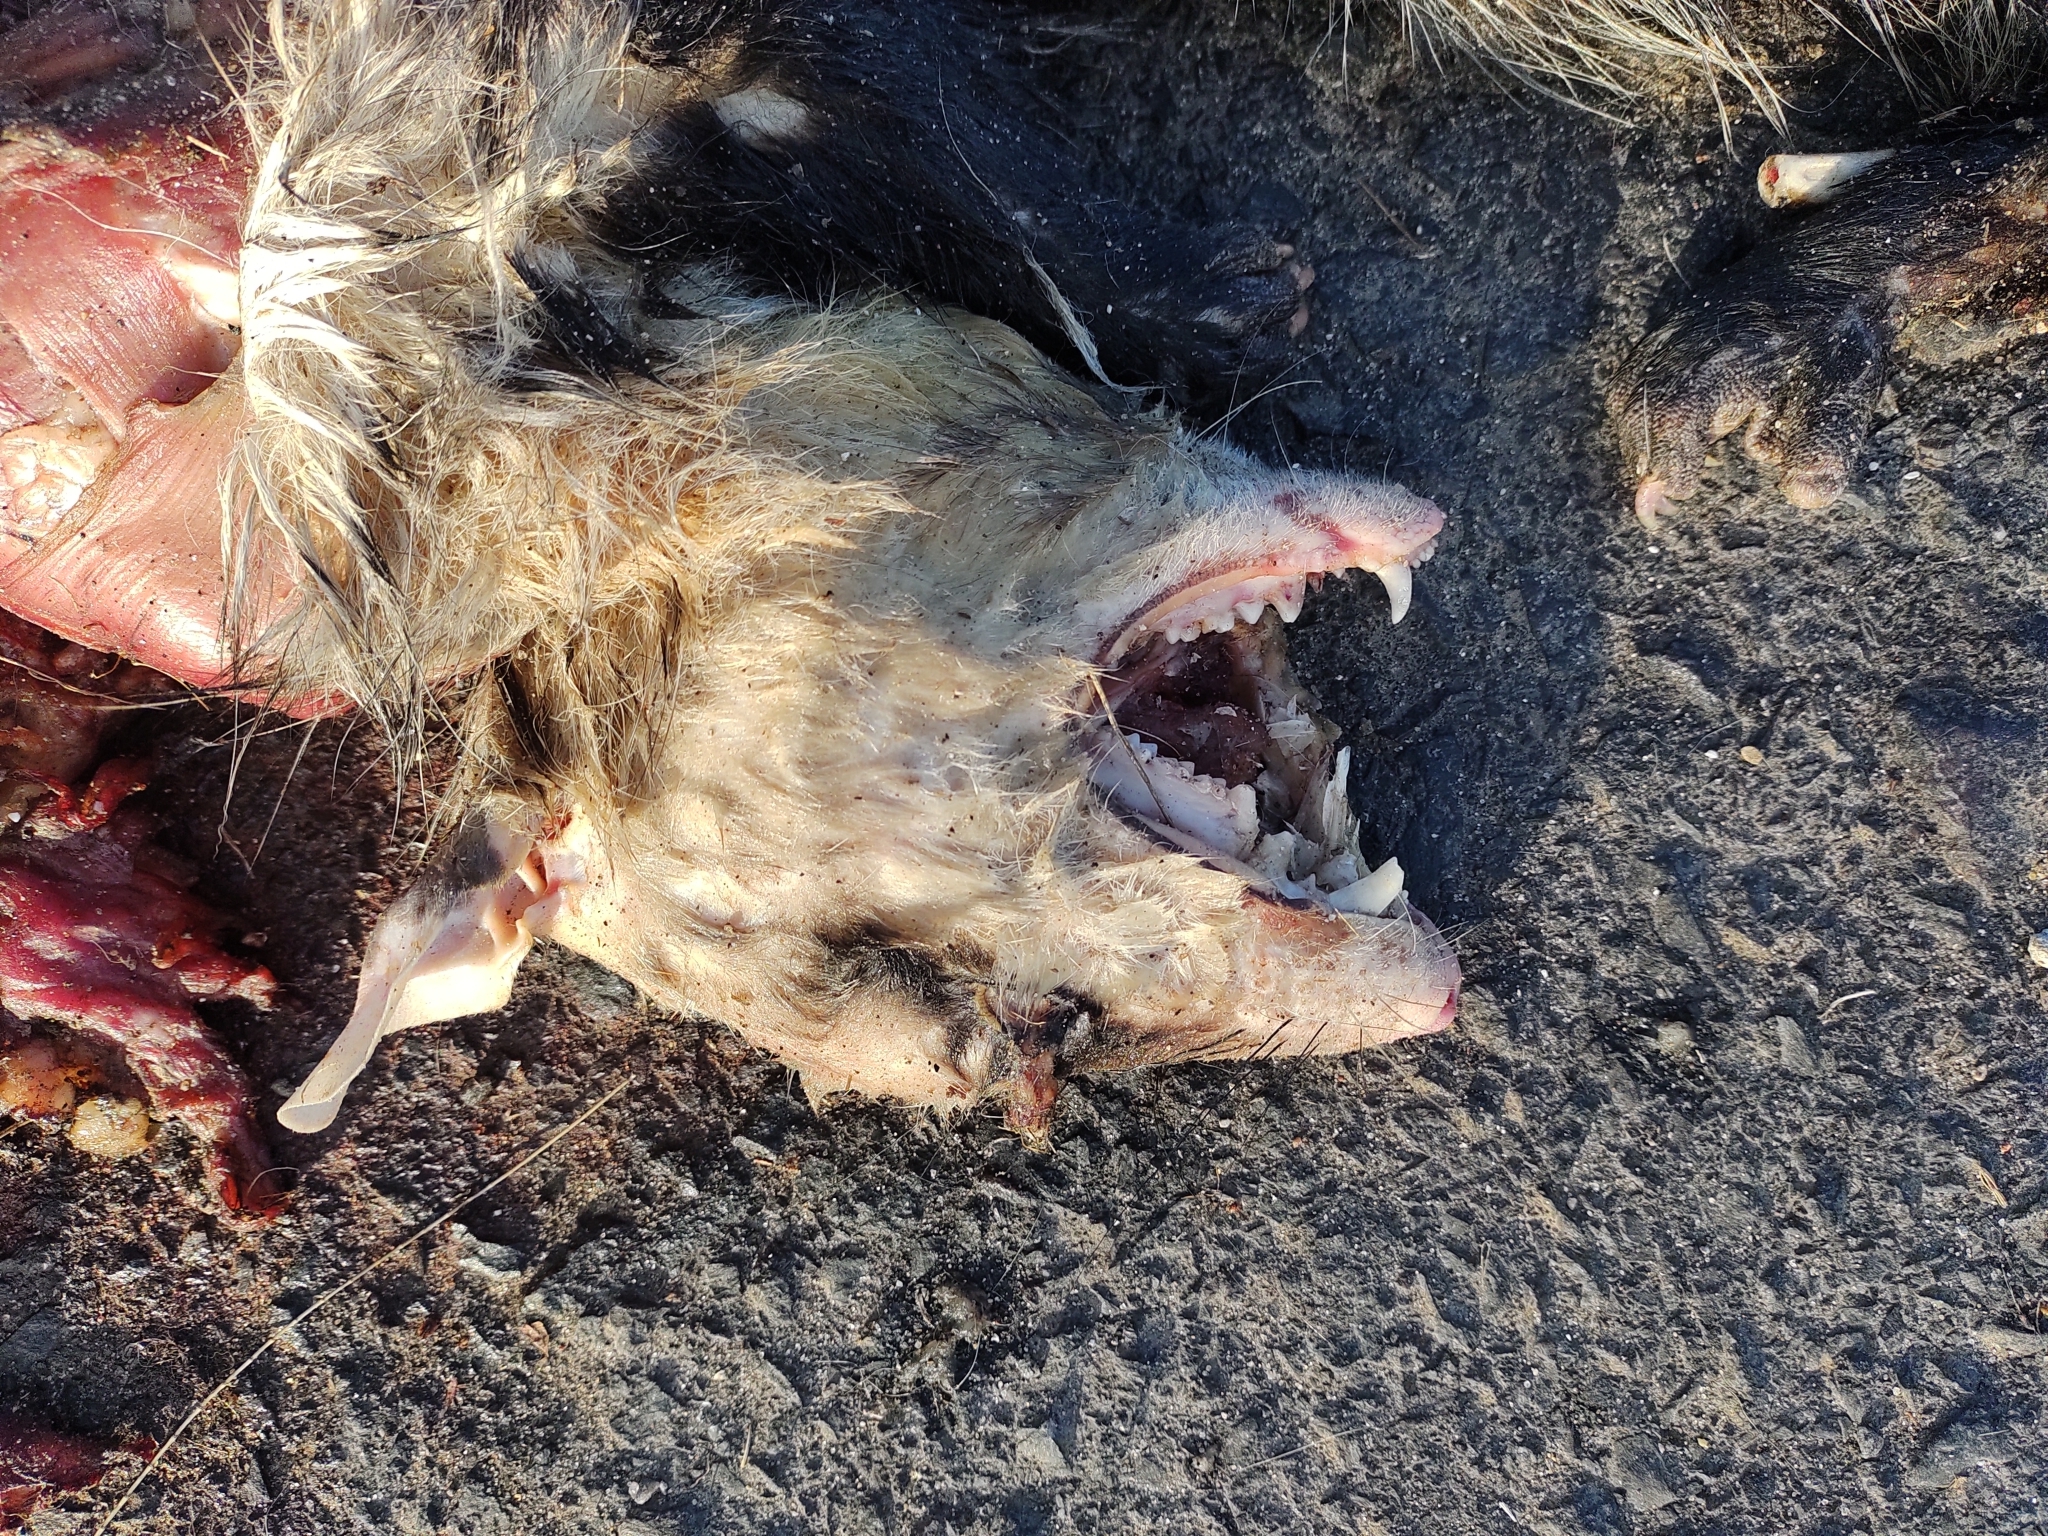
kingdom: Animalia
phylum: Chordata
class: Mammalia
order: Didelphimorphia
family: Didelphidae
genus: Didelphis
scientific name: Didelphis albiventris
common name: White-eared opossum
